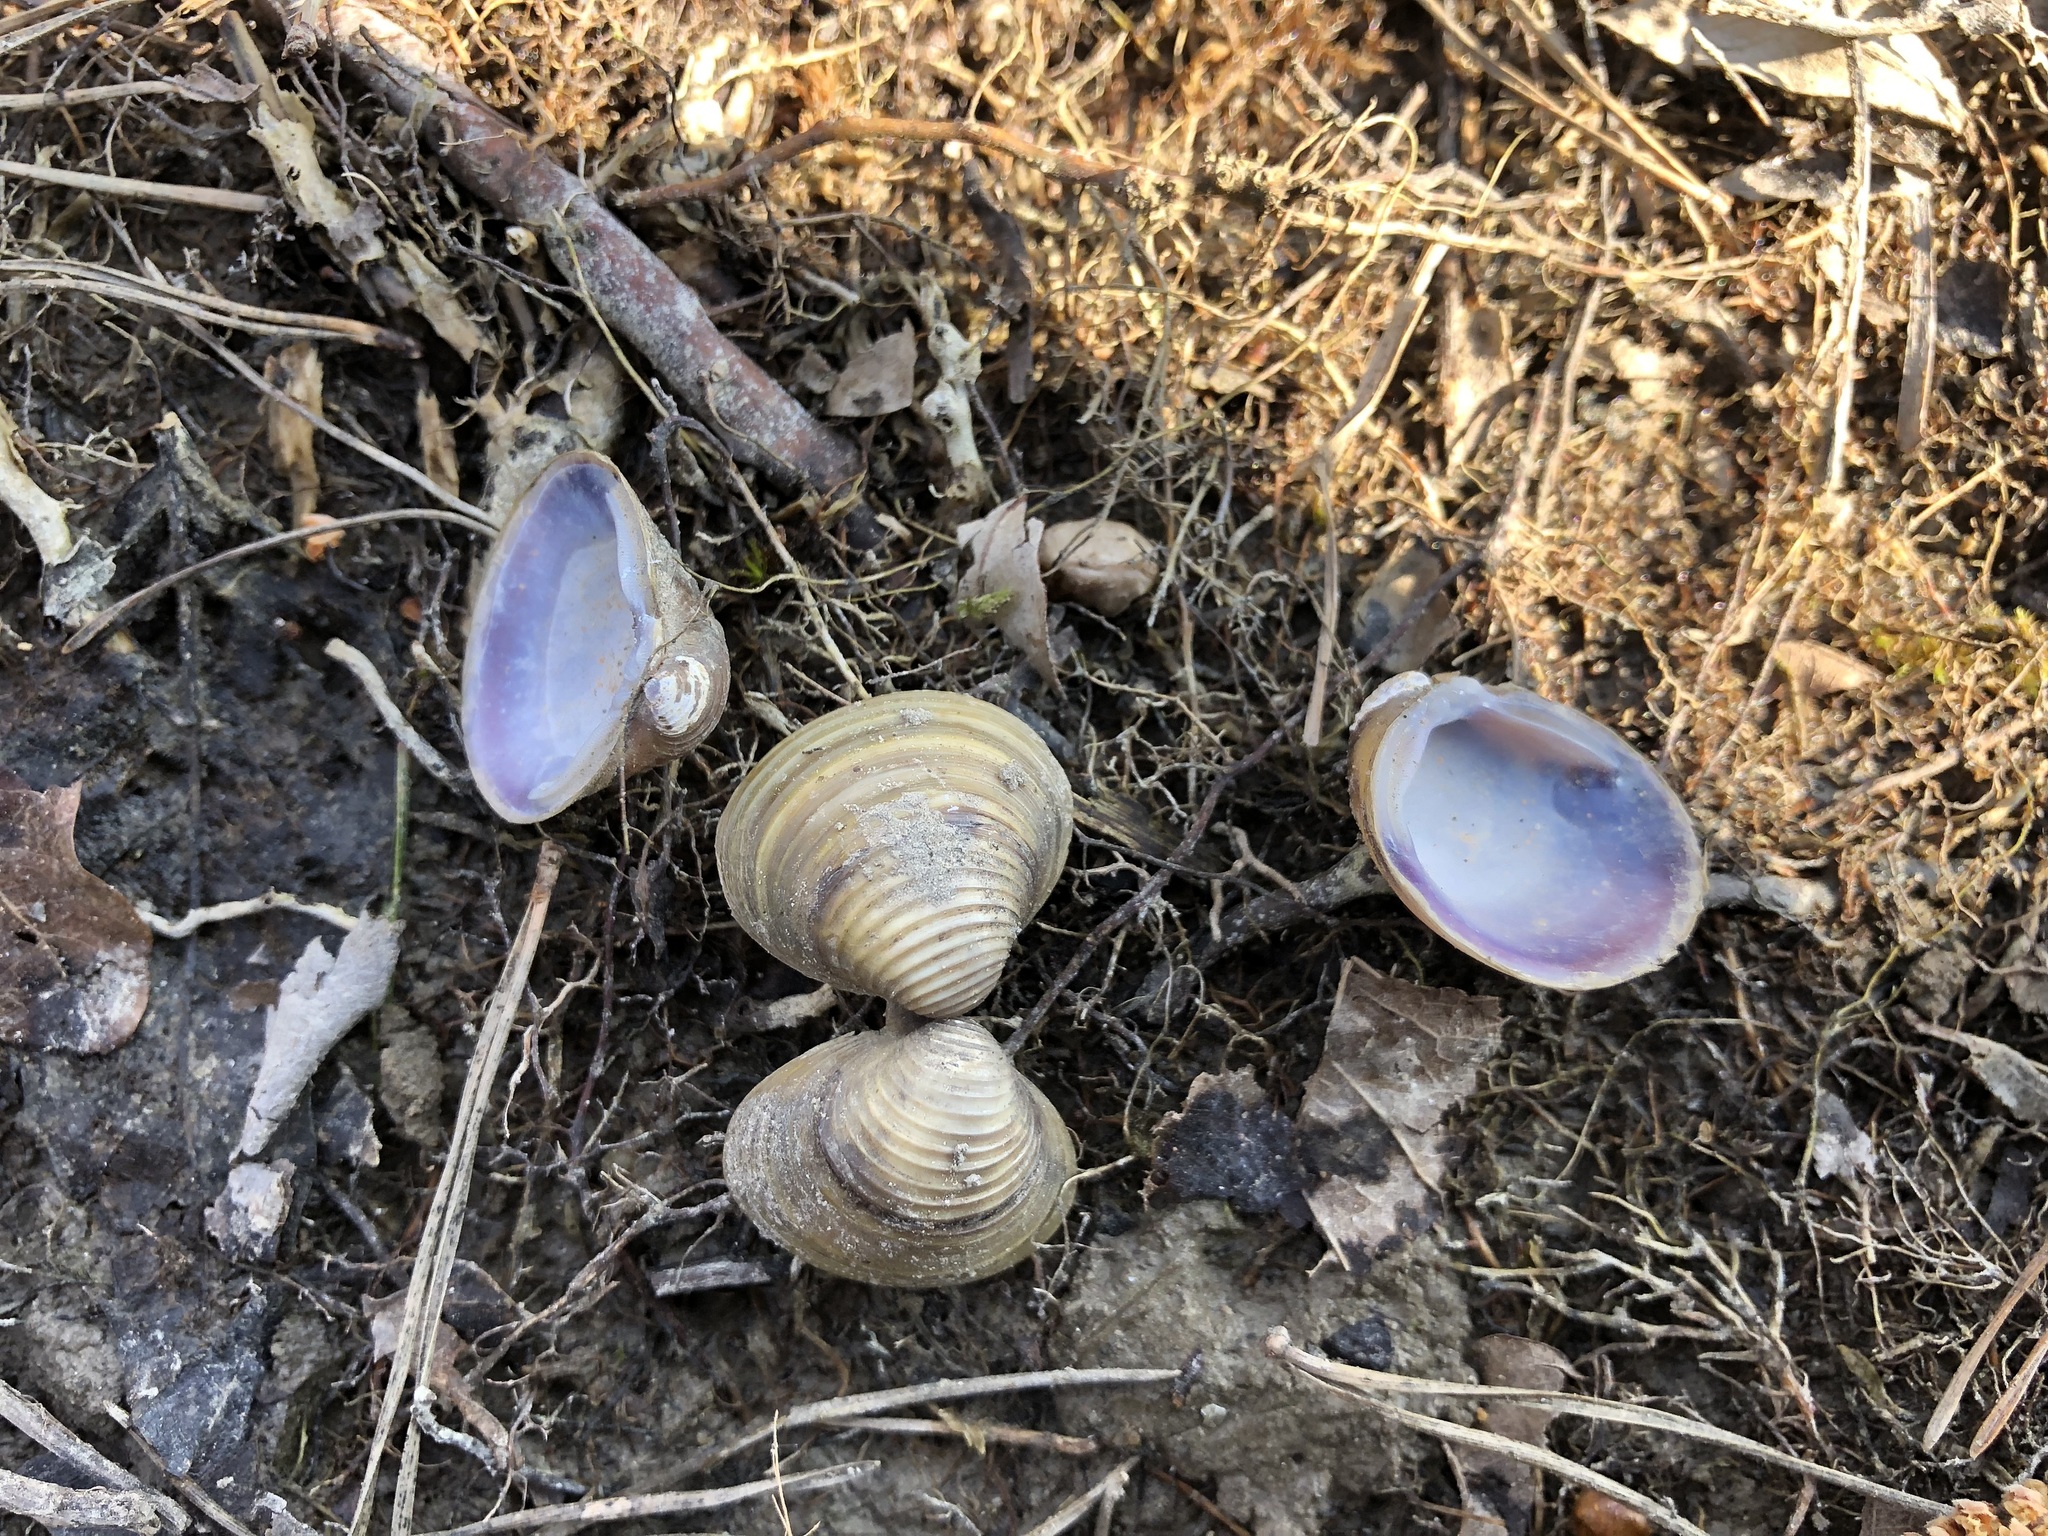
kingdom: Animalia
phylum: Mollusca
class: Bivalvia
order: Venerida
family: Cyrenidae
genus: Corbicula
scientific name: Corbicula fluminea
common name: Asian clam
